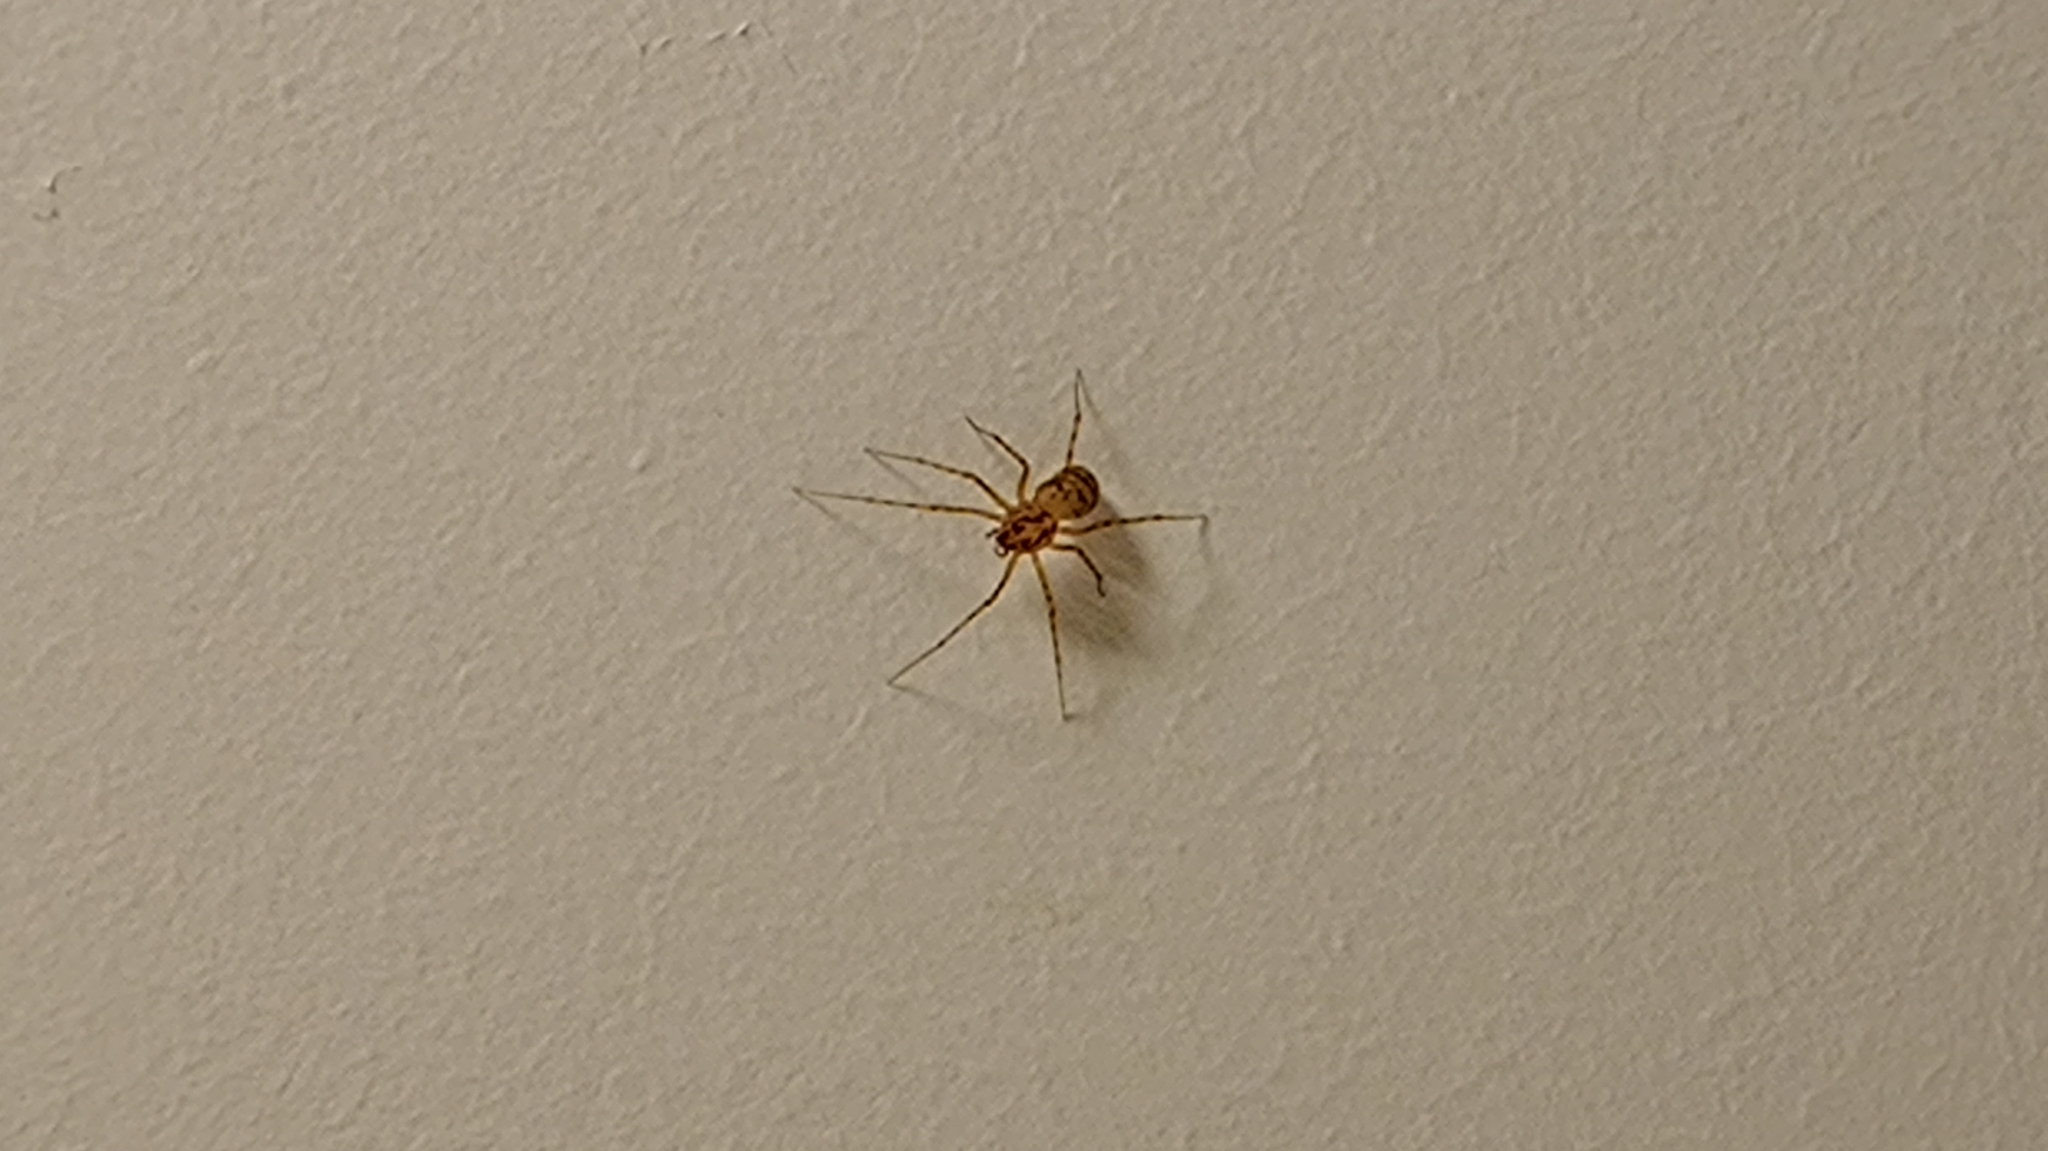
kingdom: Animalia
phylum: Arthropoda
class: Arachnida
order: Araneae
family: Scytodidae
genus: Scytodes
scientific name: Scytodes thoracica
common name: Spitting spider
